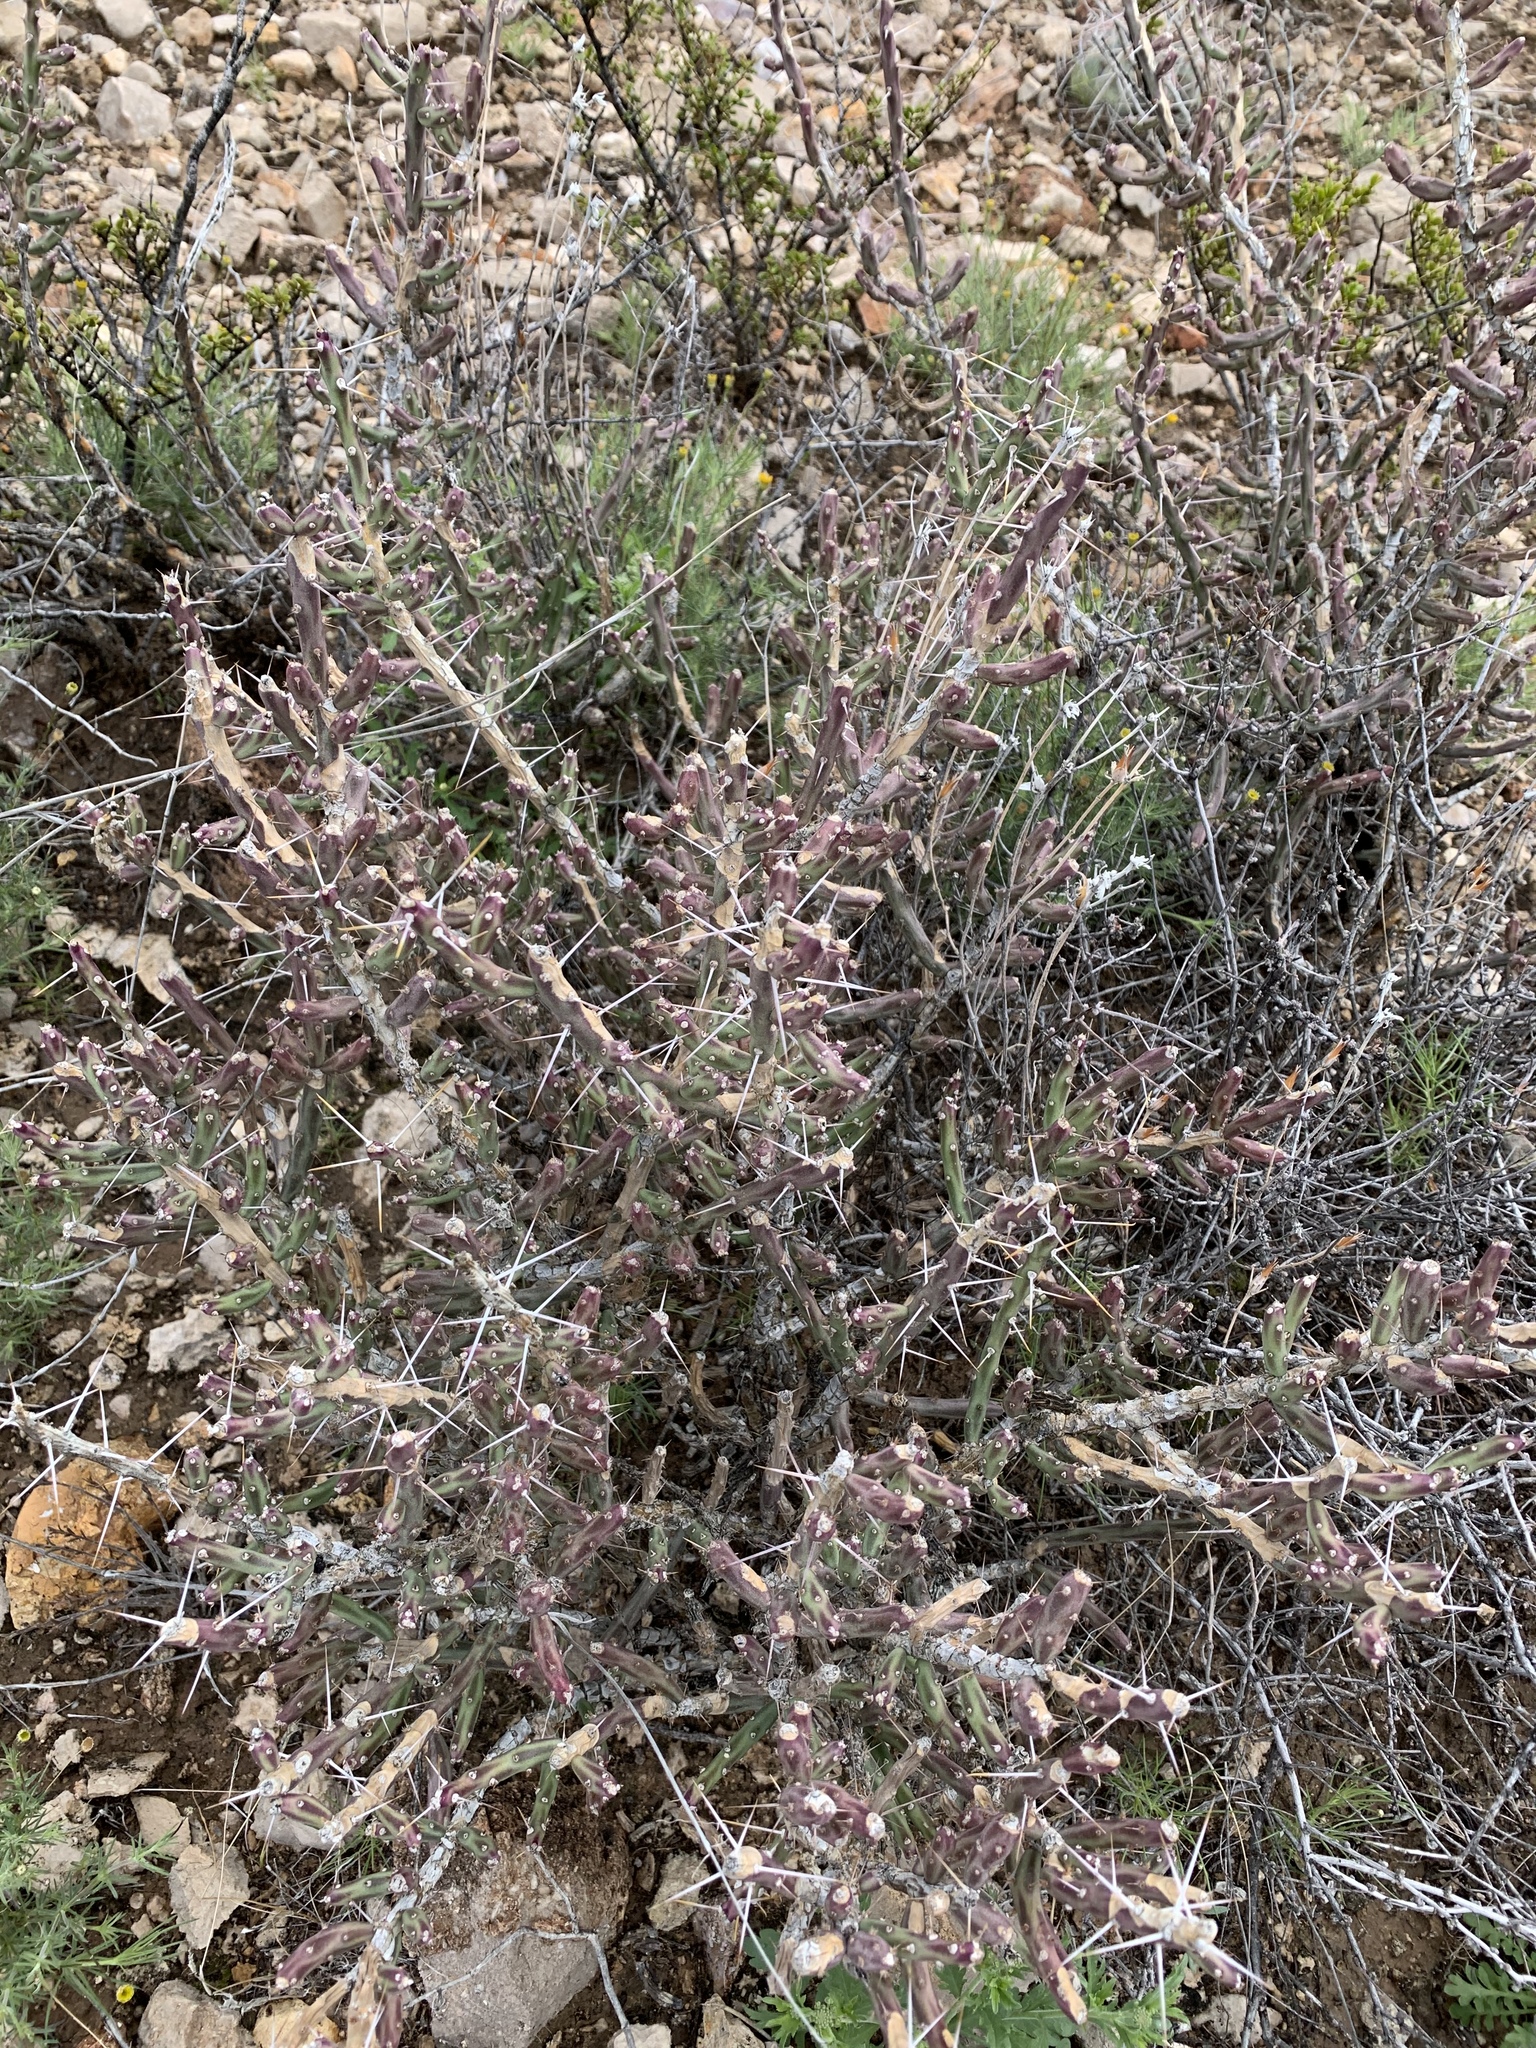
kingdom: Plantae
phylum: Tracheophyta
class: Magnoliopsida
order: Caryophyllales
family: Cactaceae
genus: Cylindropuntia
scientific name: Cylindropuntia leptocaulis
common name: Christmas cactus
